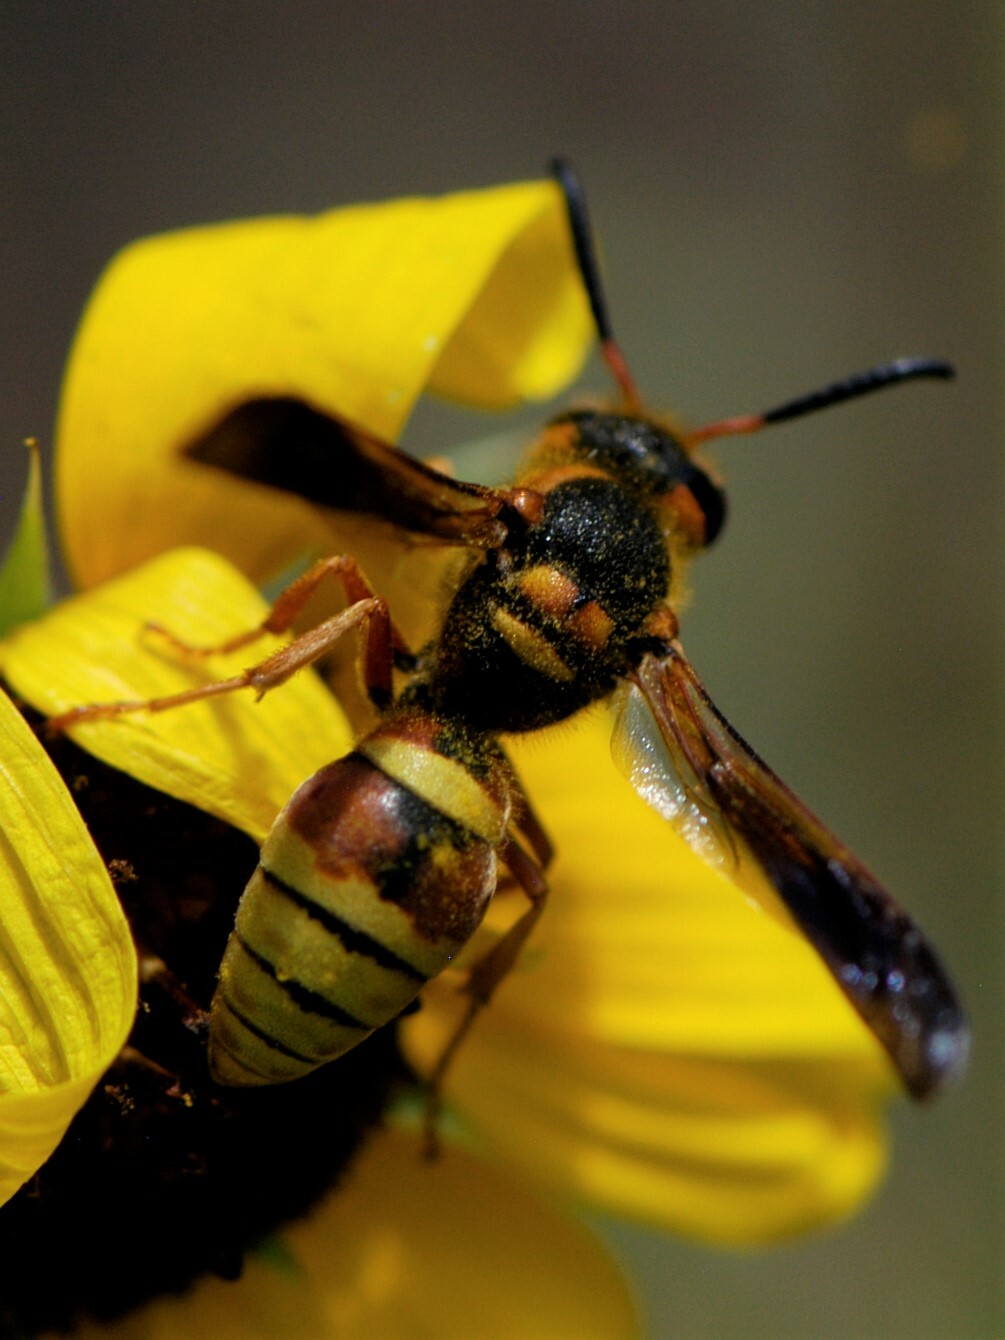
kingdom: Animalia
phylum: Arthropoda
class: Insecta
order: Hymenoptera
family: Vespidae
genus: Megapterocheilus
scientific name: Megapterocheilus
